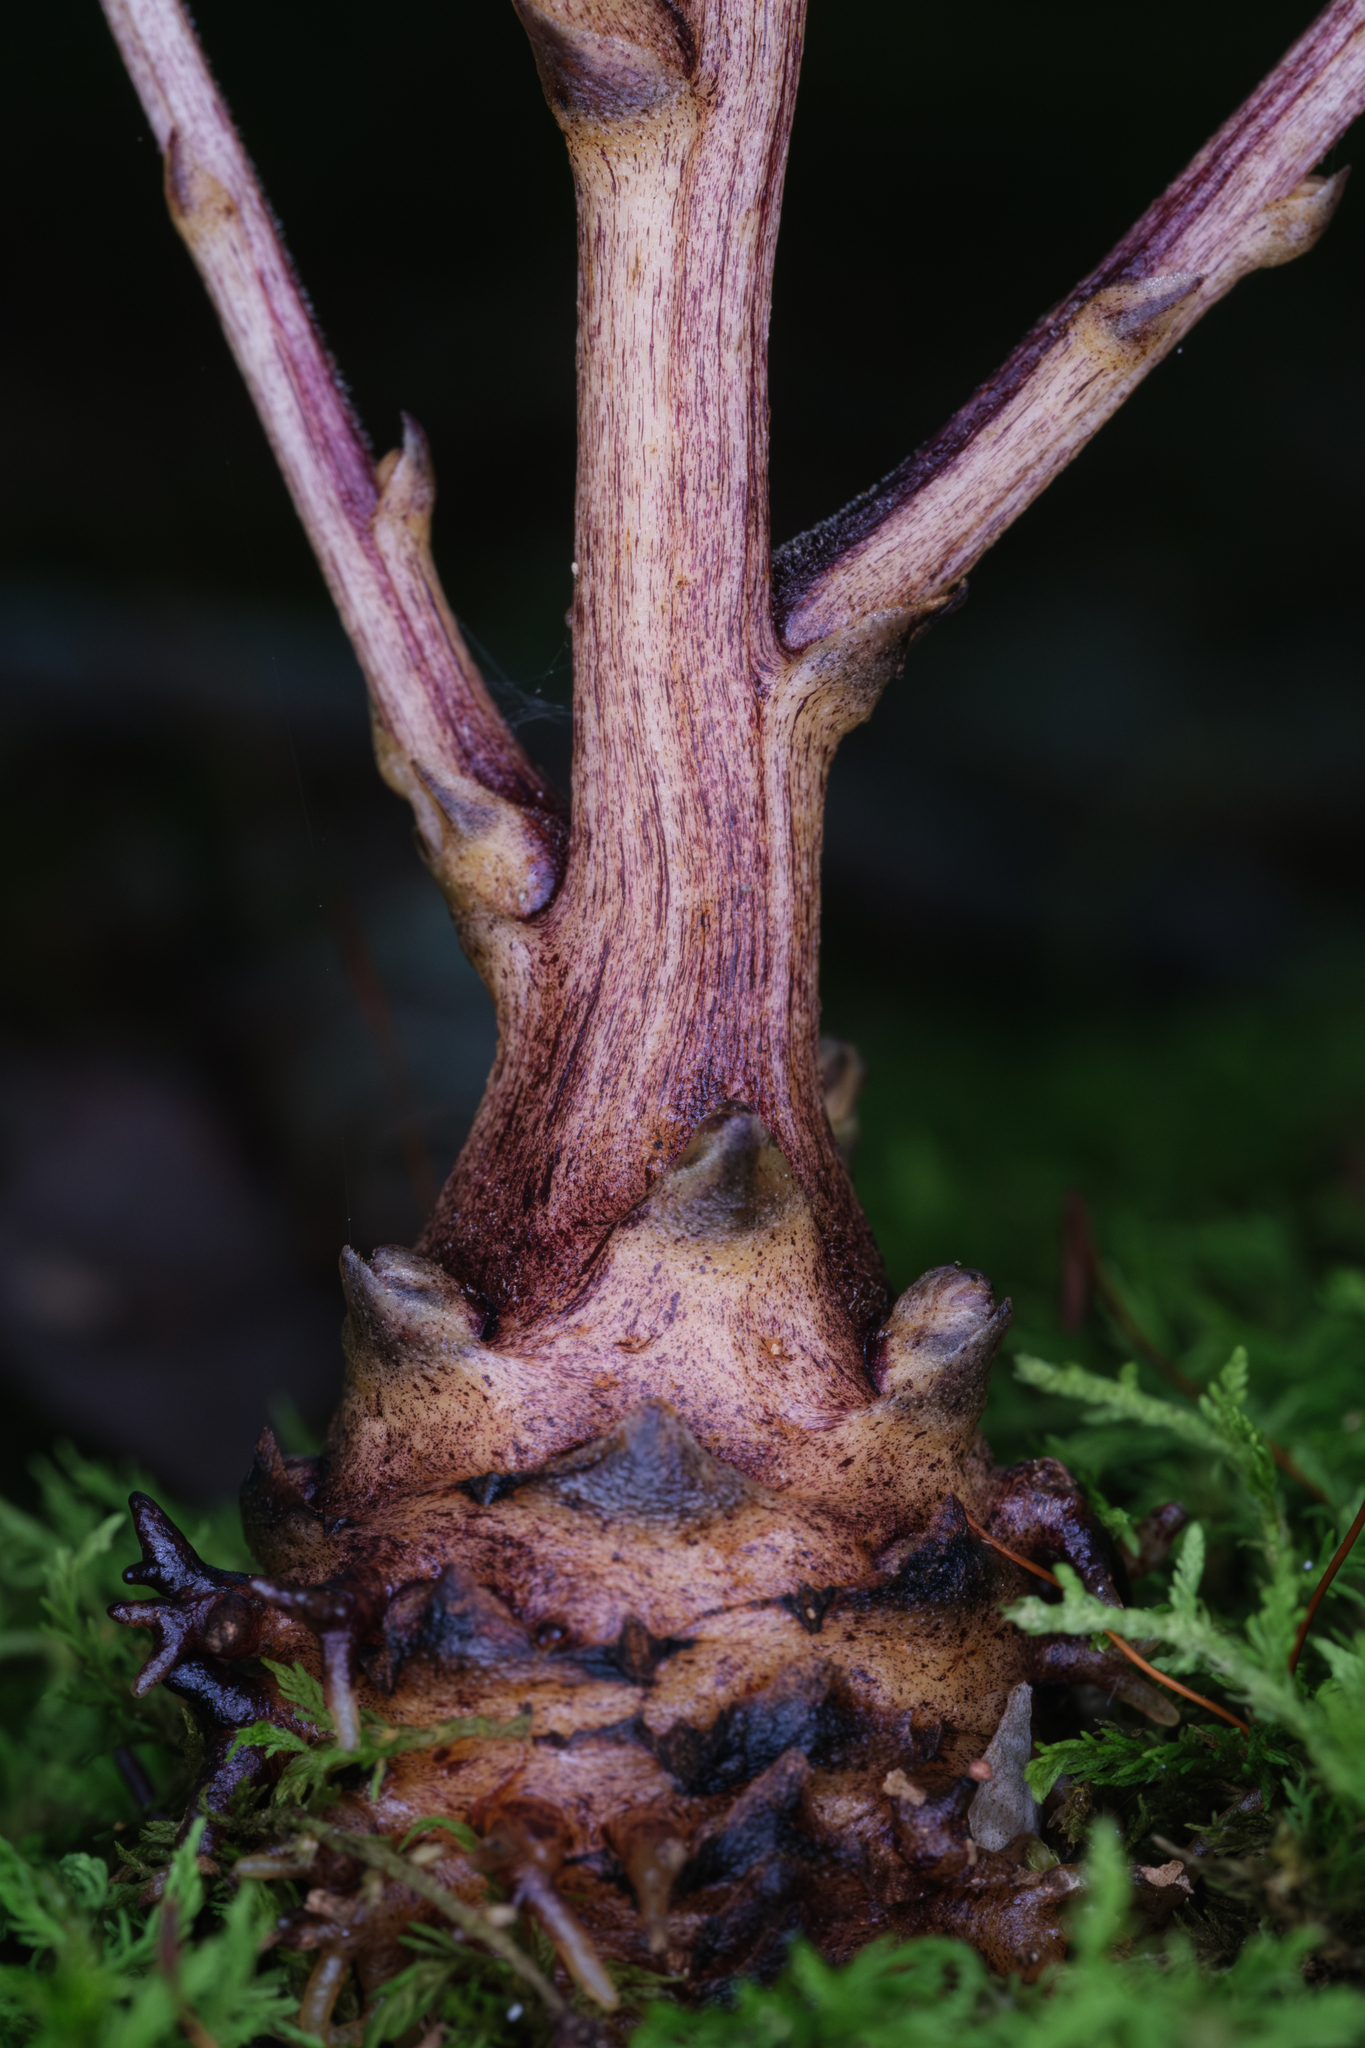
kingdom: Plantae
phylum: Tracheophyta
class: Magnoliopsida
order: Lamiales
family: Orobanchaceae
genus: Epifagus
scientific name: Epifagus virginiana
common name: Beechdrops
